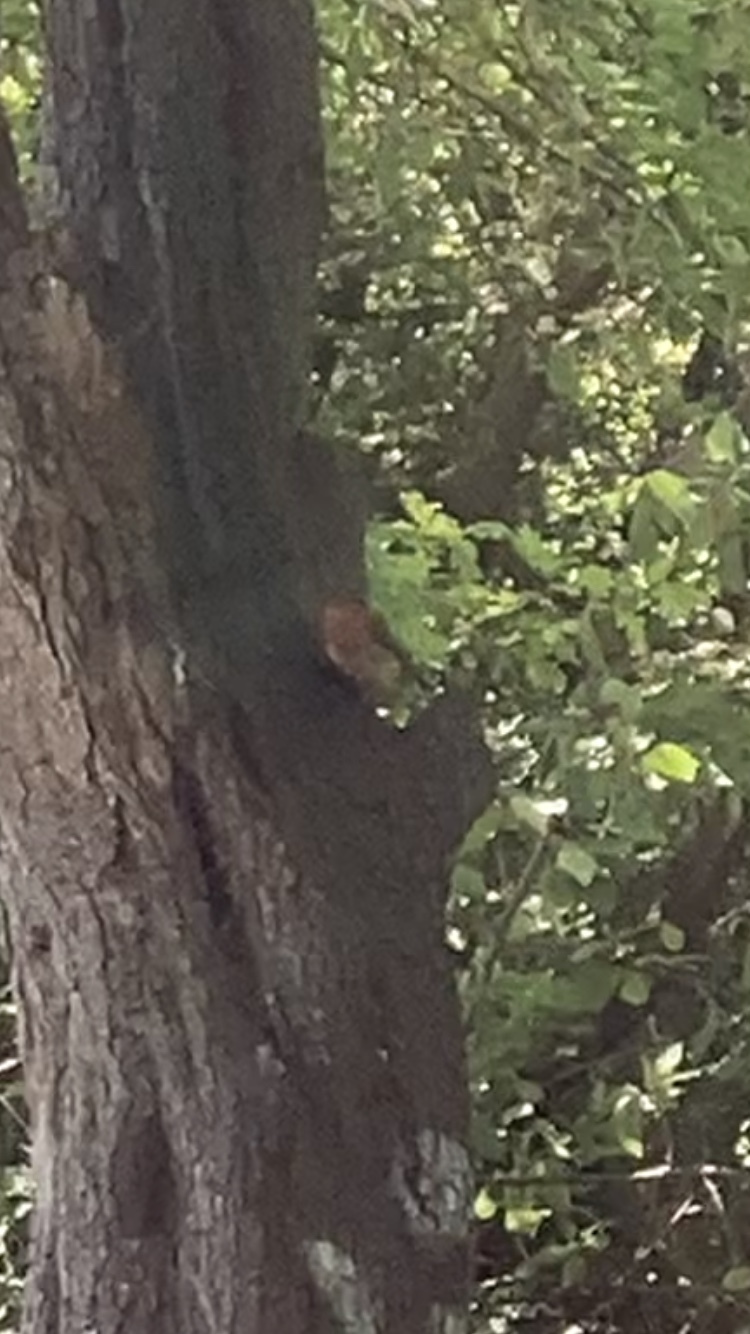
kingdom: Animalia
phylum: Chordata
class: Aves
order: Passeriformes
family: Muscicapidae
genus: Erithacus
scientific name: Erithacus rubecula
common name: European robin
